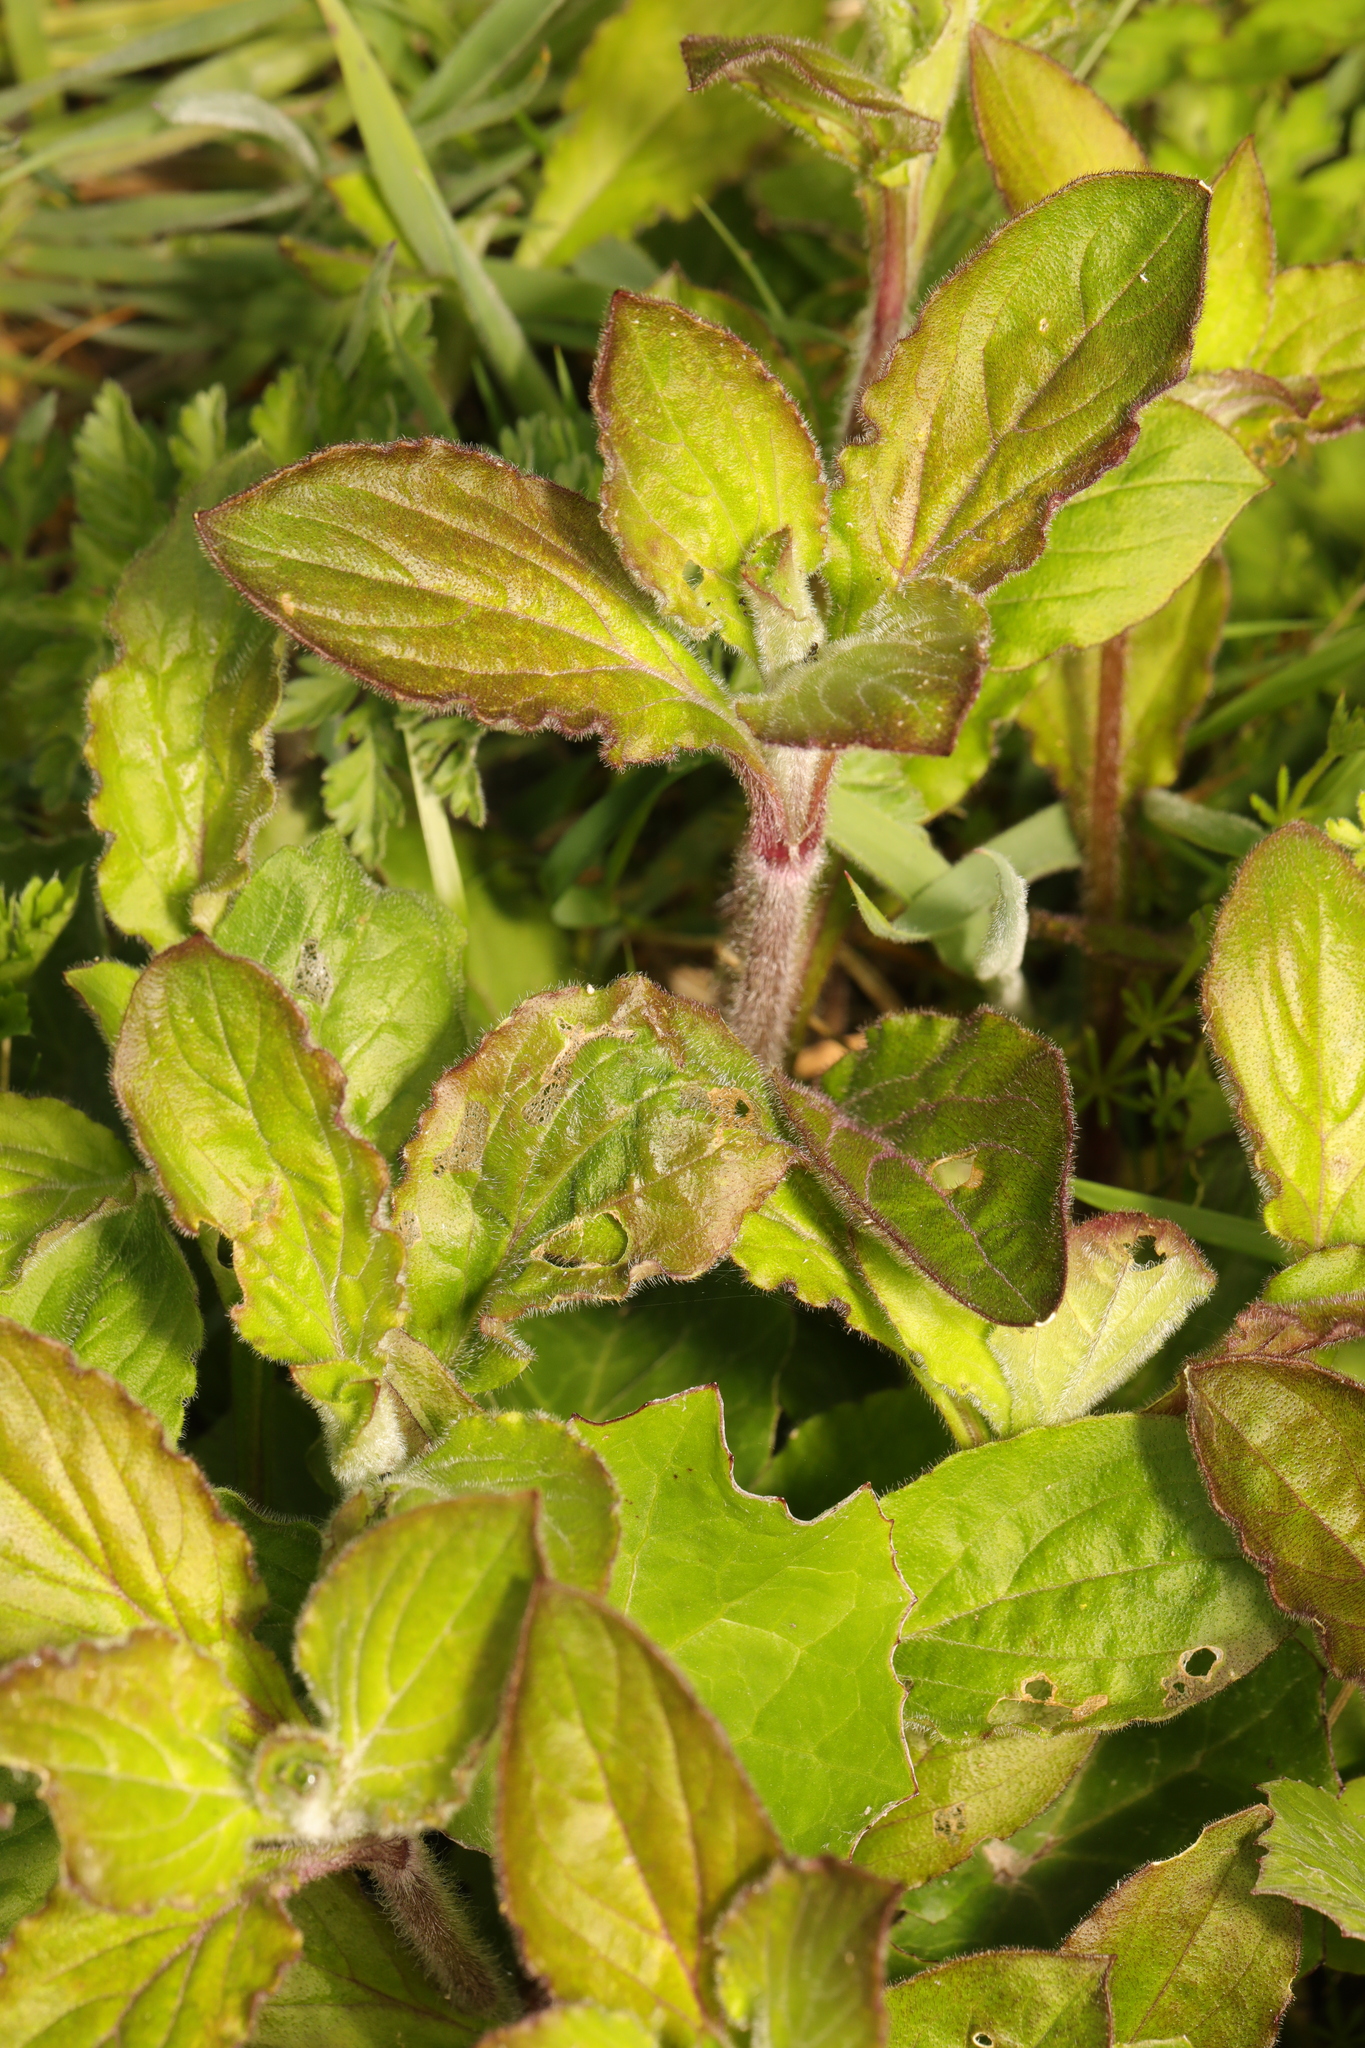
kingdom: Plantae
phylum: Tracheophyta
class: Magnoliopsida
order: Lamiales
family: Lamiaceae
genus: Mentha
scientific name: Mentha aquatica
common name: Water mint
